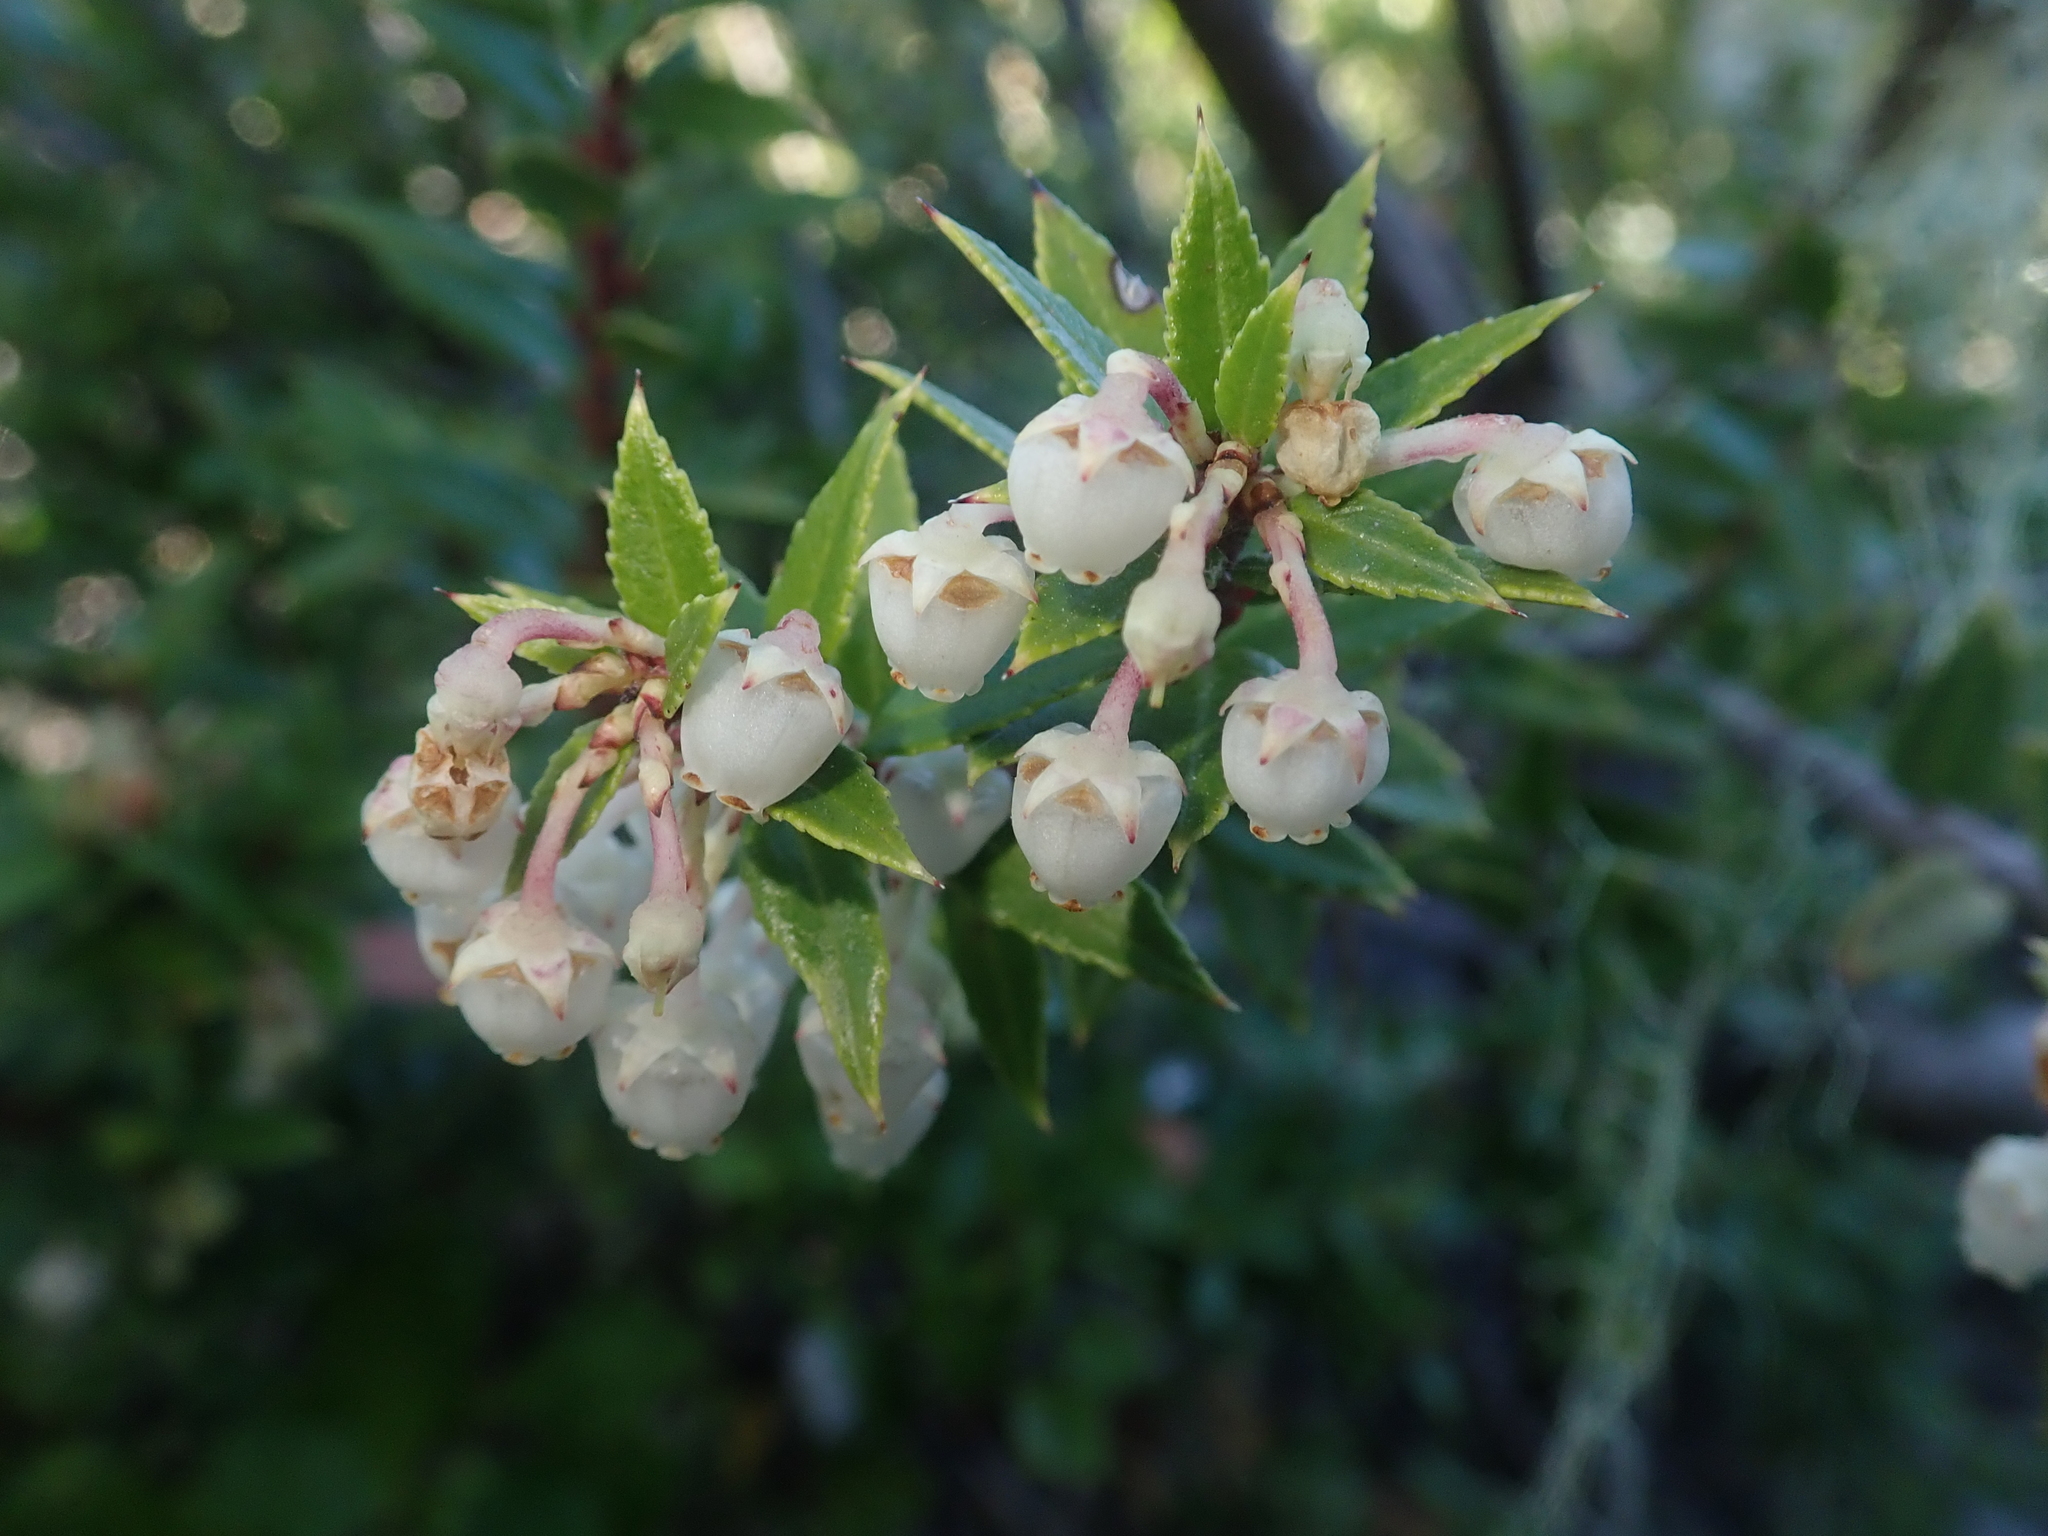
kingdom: Plantae
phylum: Tracheophyta
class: Magnoliopsida
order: Ericales
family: Ericaceae
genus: Gaultheria
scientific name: Gaultheria mucronata
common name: Prickly heath
